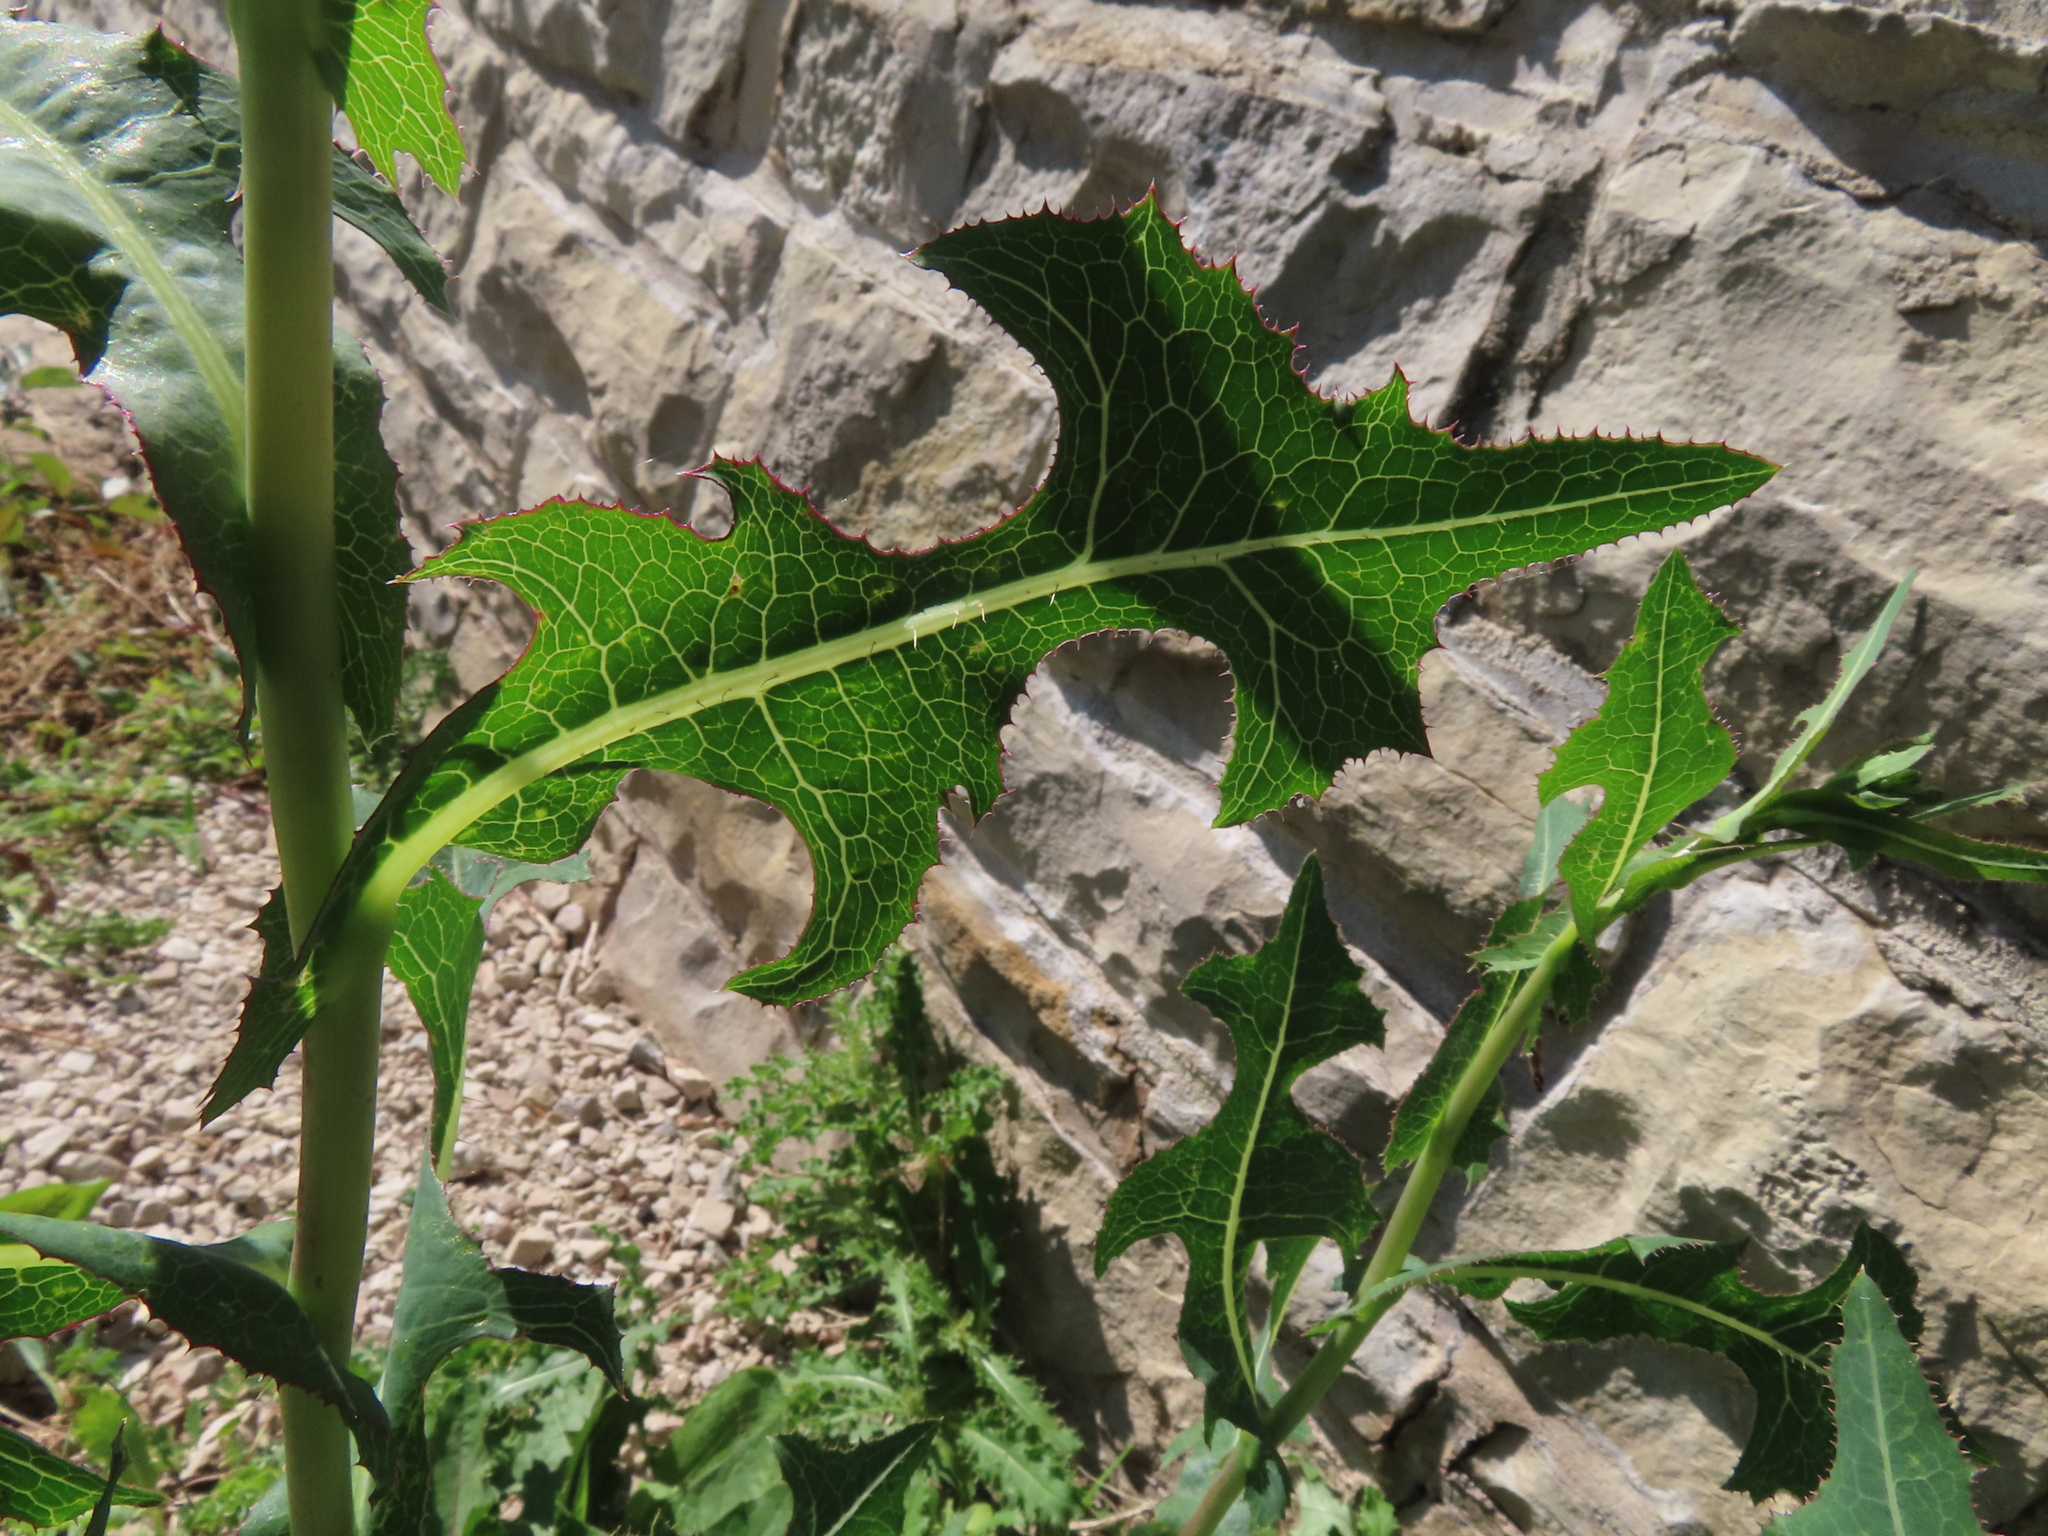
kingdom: Plantae
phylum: Tracheophyta
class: Magnoliopsida
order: Asterales
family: Asteraceae
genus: Lactuca
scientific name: Lactuca serriola
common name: Prickly lettuce
